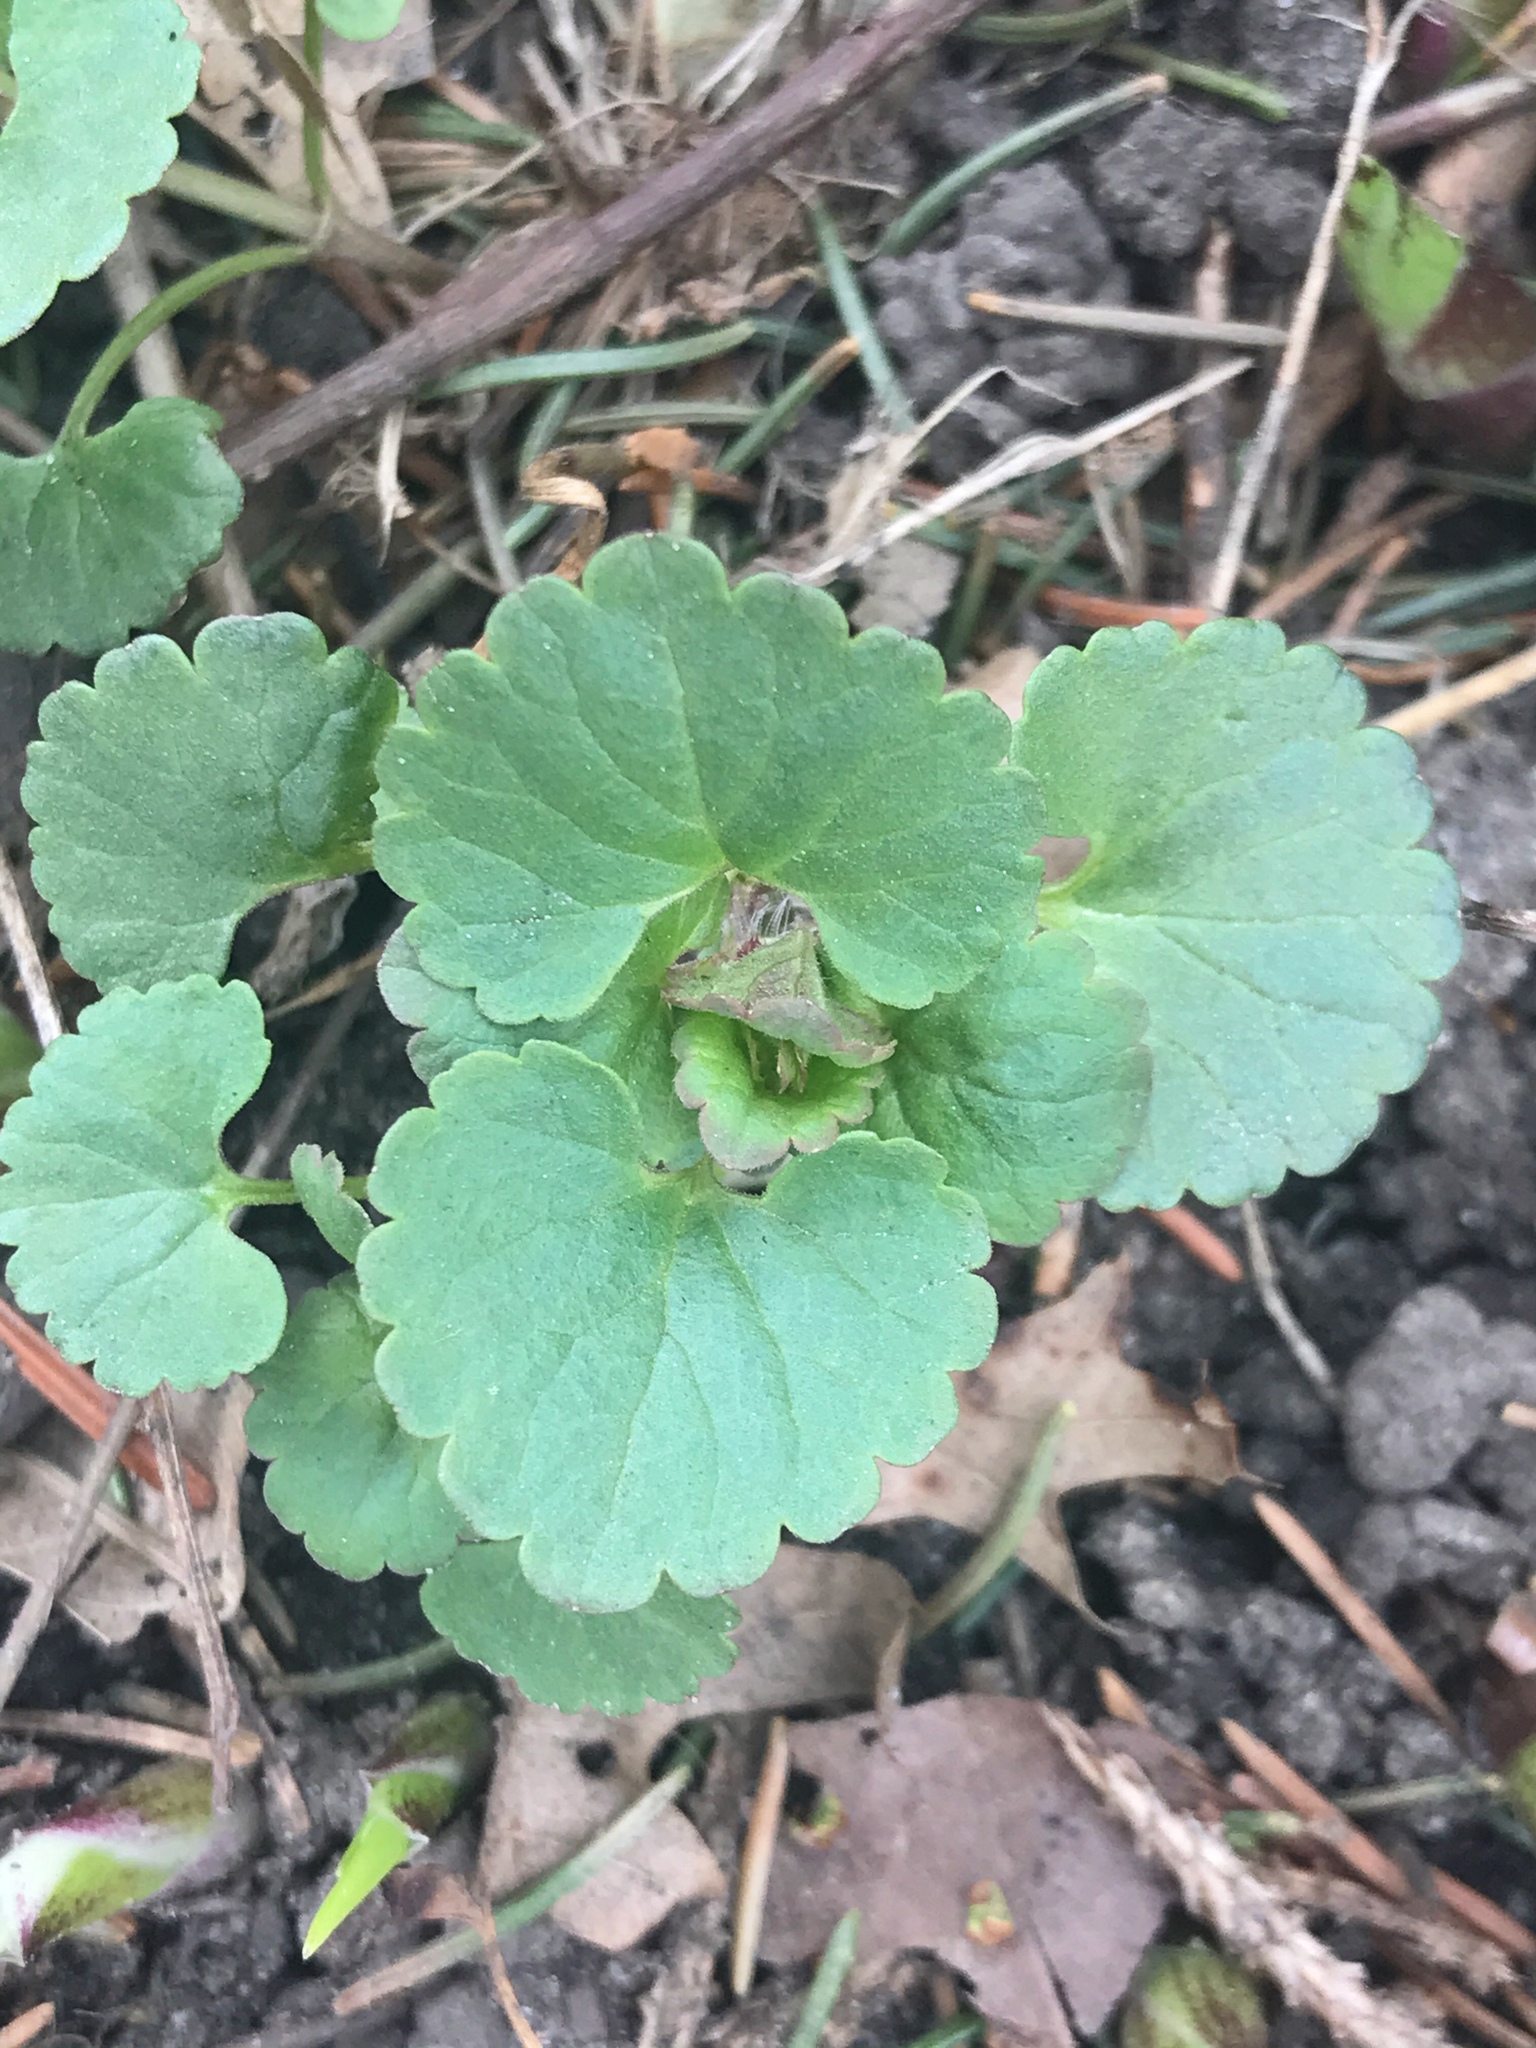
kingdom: Plantae
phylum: Tracheophyta
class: Magnoliopsida
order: Lamiales
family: Lamiaceae
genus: Glechoma
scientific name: Glechoma hederacea
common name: Ground ivy
